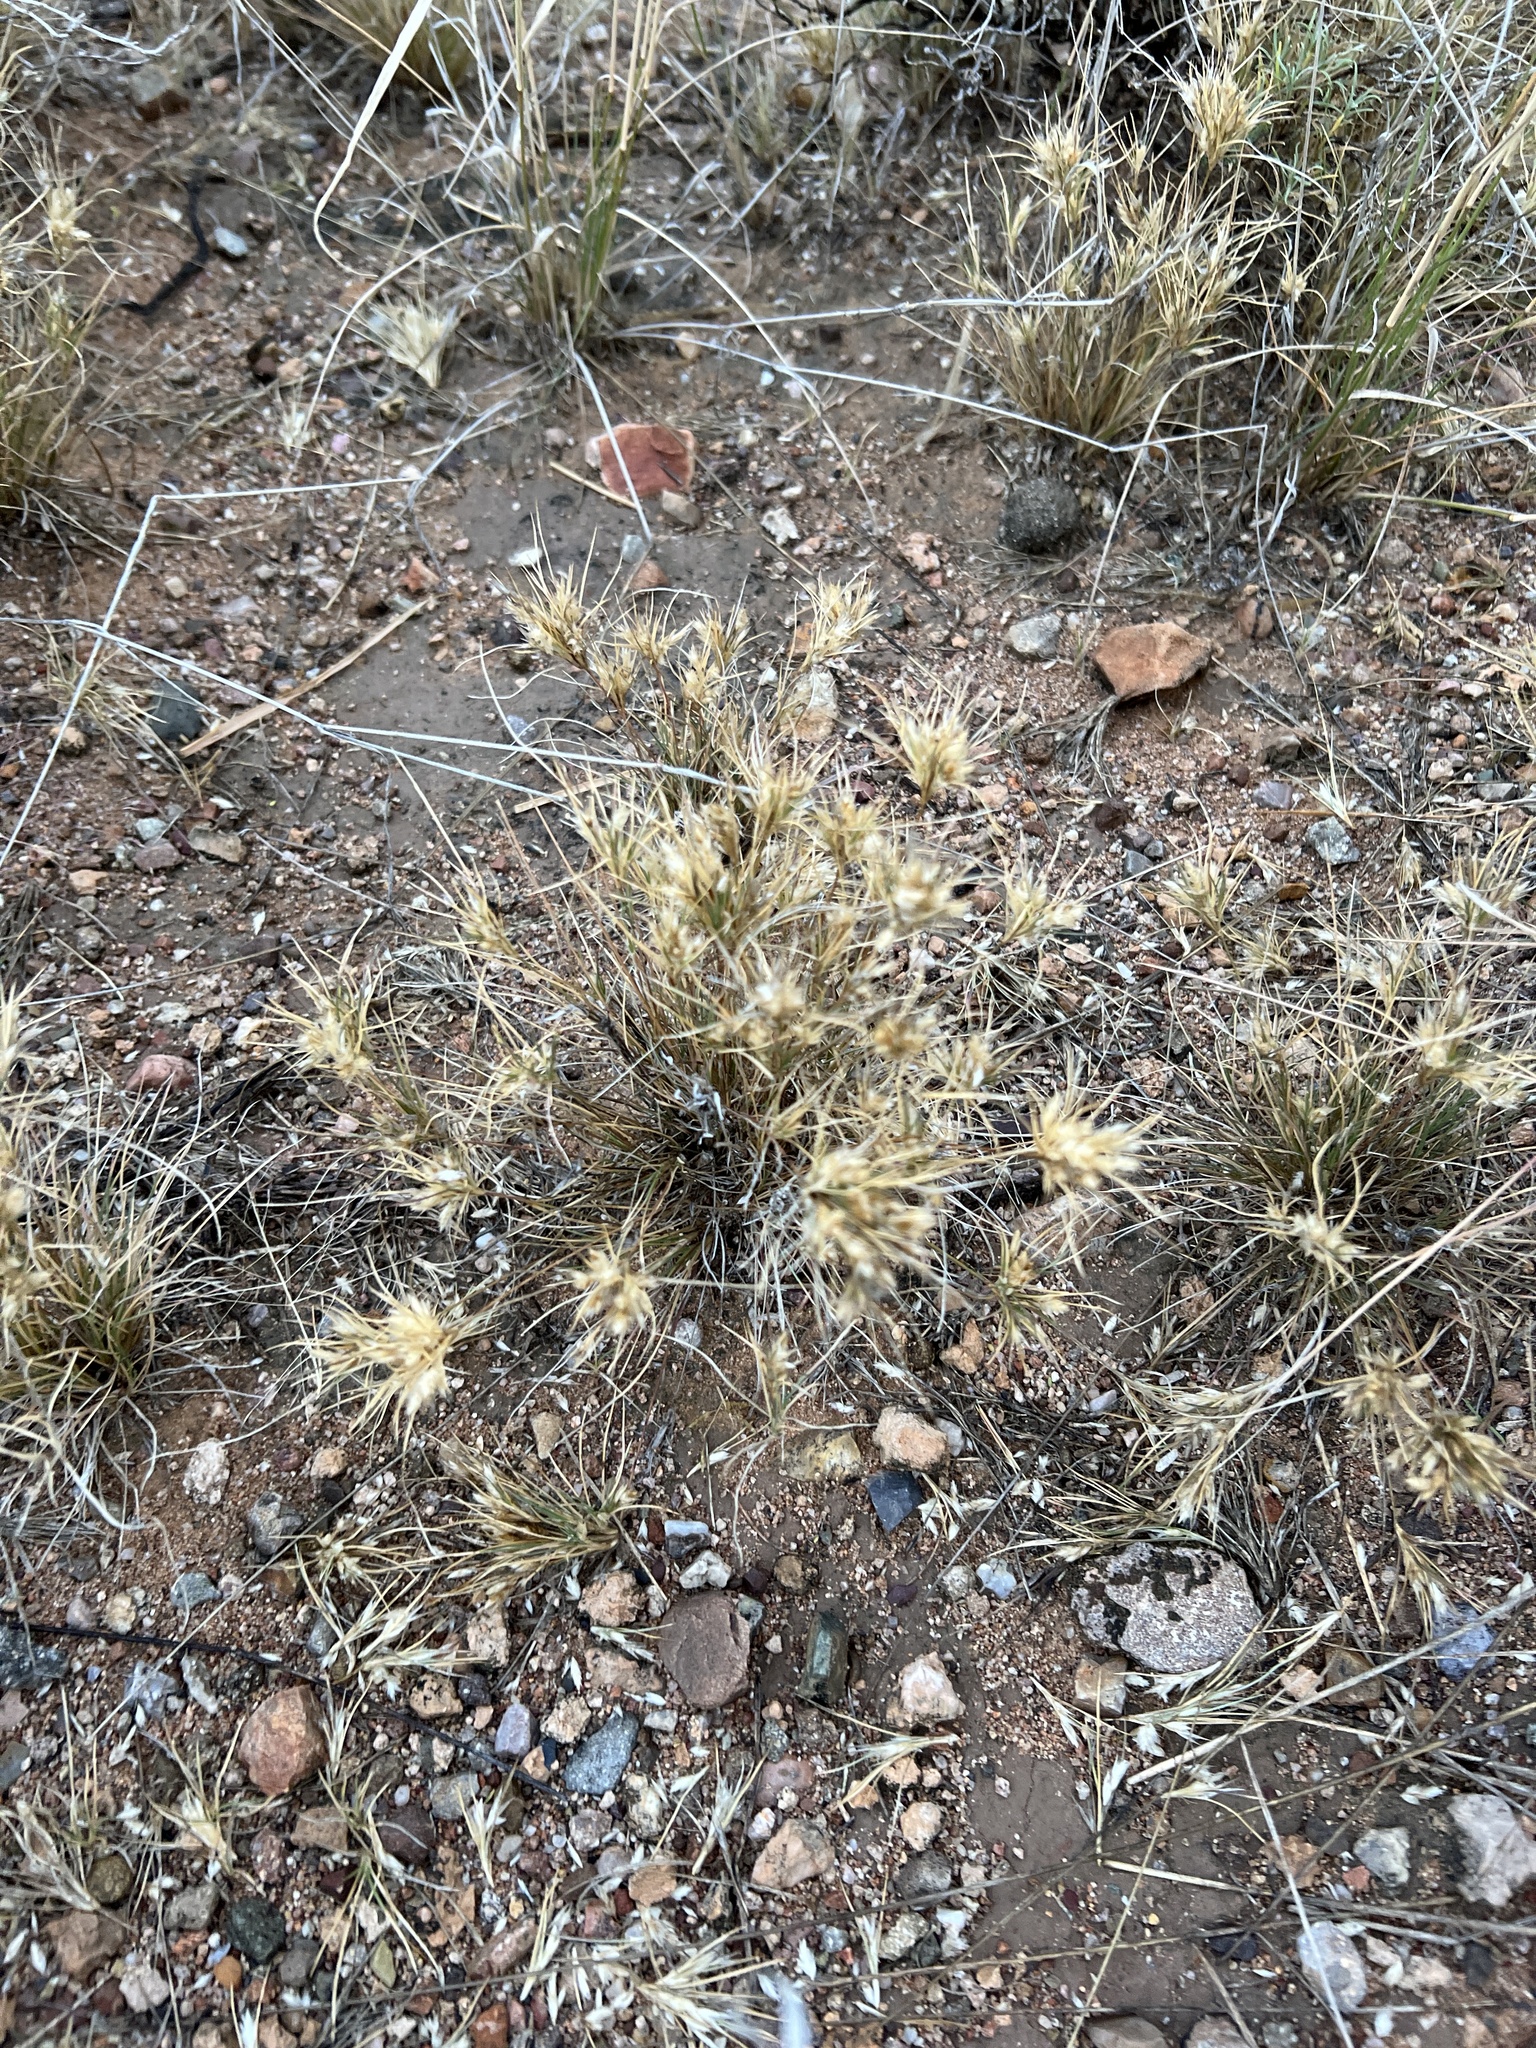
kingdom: Plantae
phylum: Tracheophyta
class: Liliopsida
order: Poales
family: Poaceae
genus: Dasyochloa
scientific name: Dasyochloa pulchella
